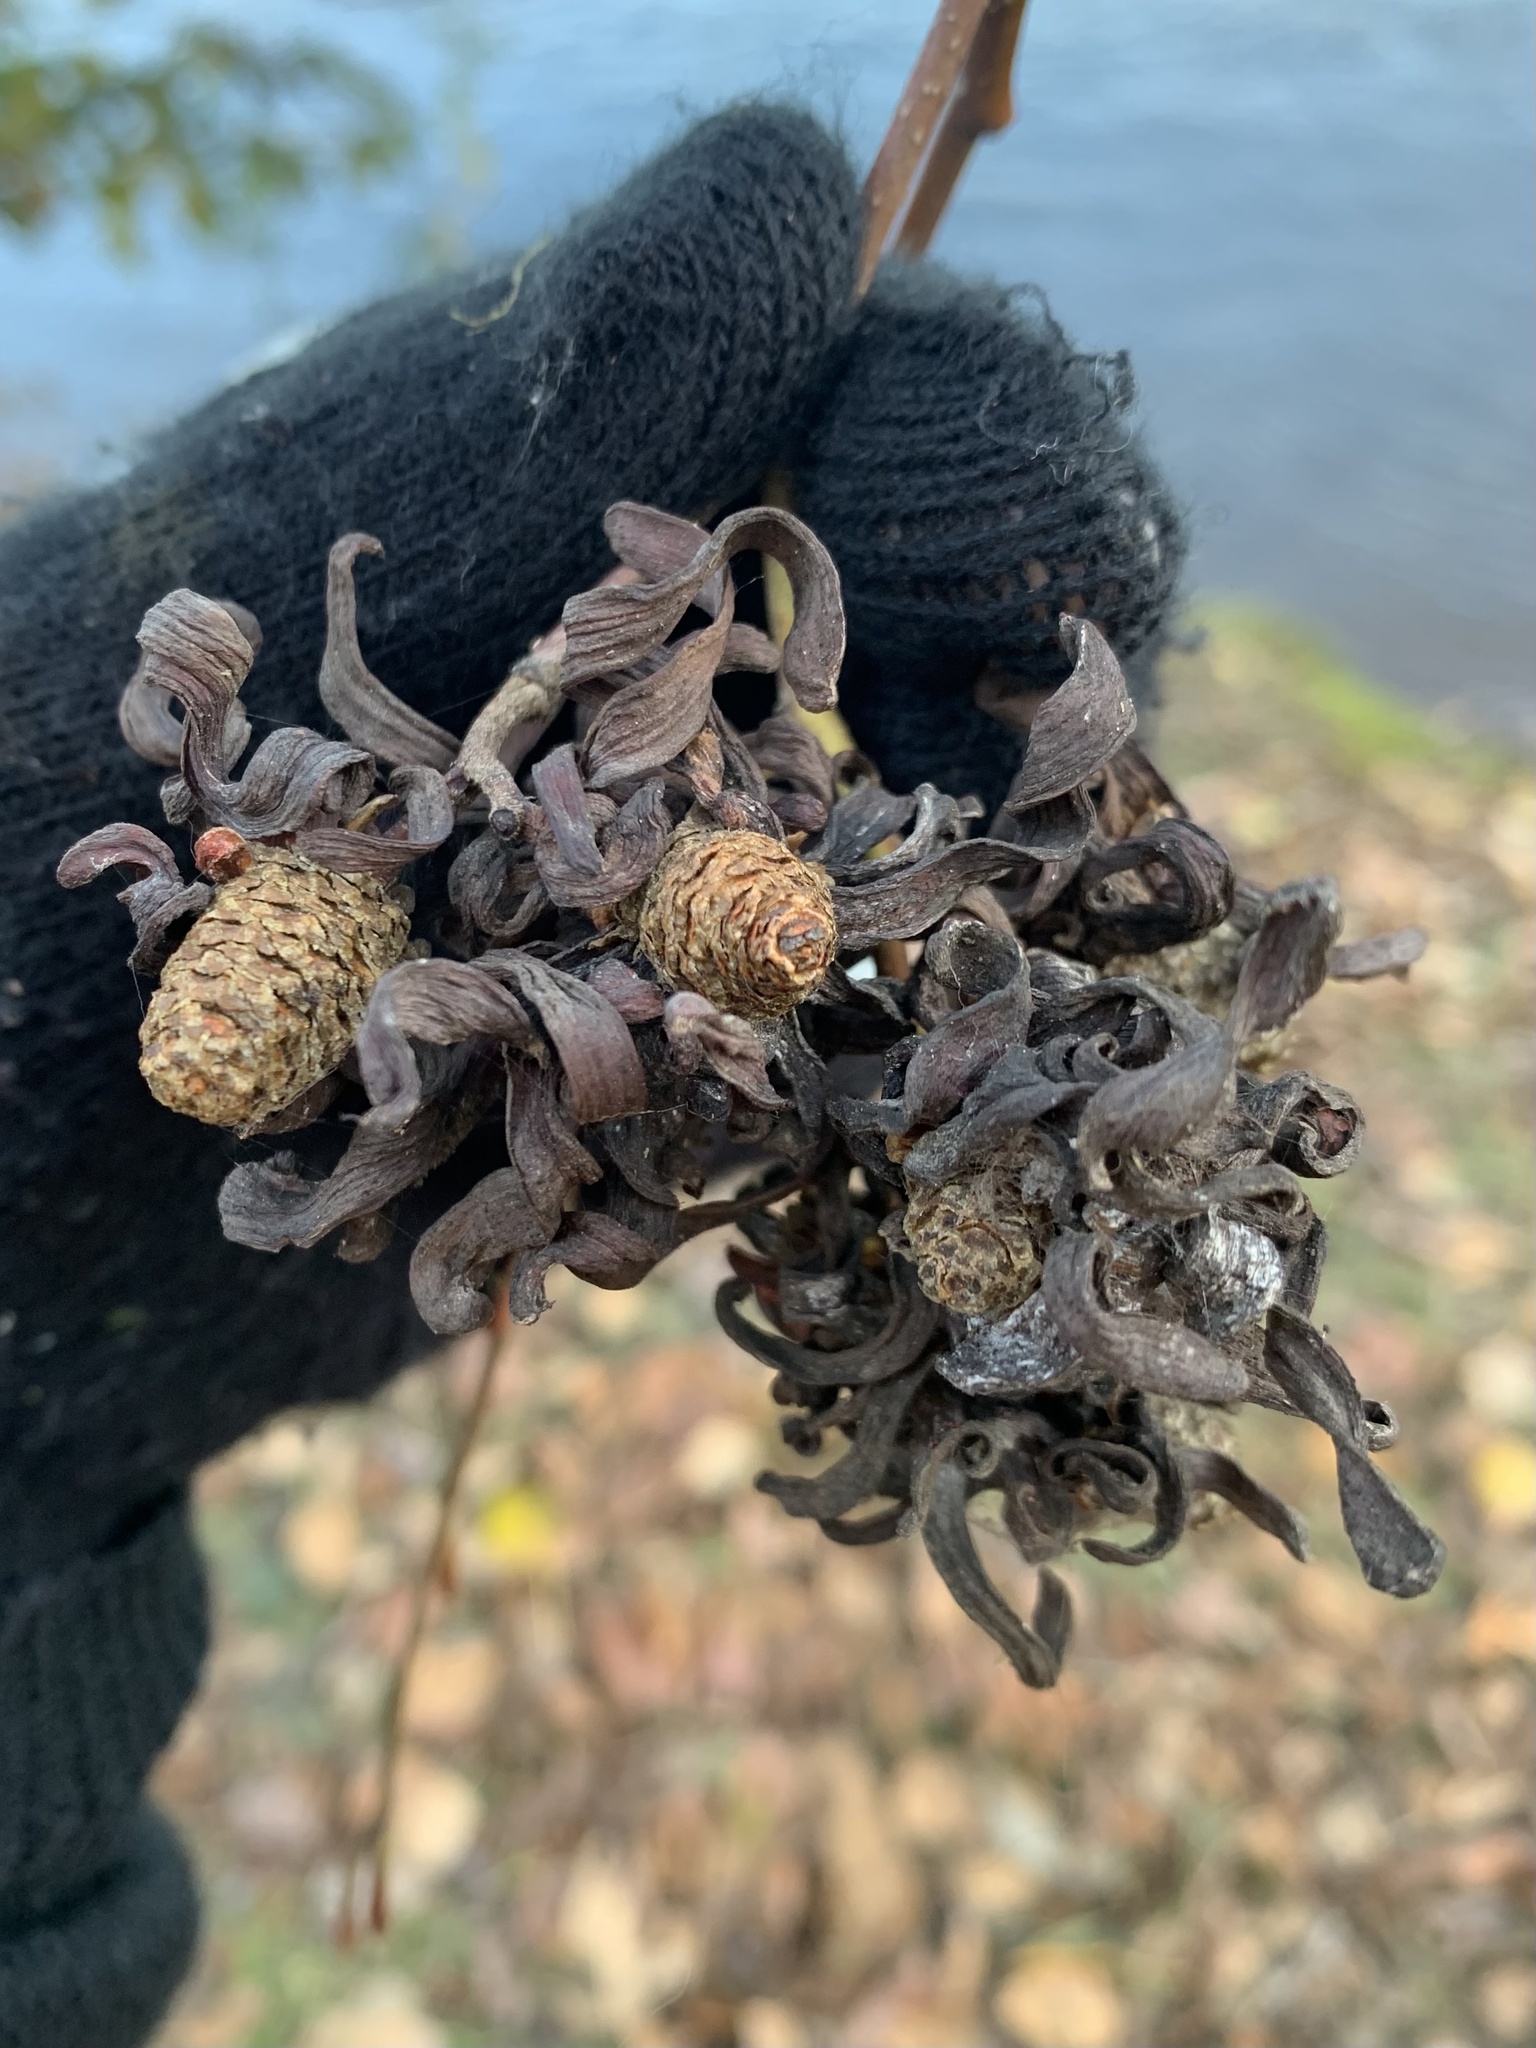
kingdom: Fungi
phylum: Ascomycota
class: Taphrinomycetes
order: Taphrinales
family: Taphrinaceae
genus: Taphrina
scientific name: Taphrina occidentalis
